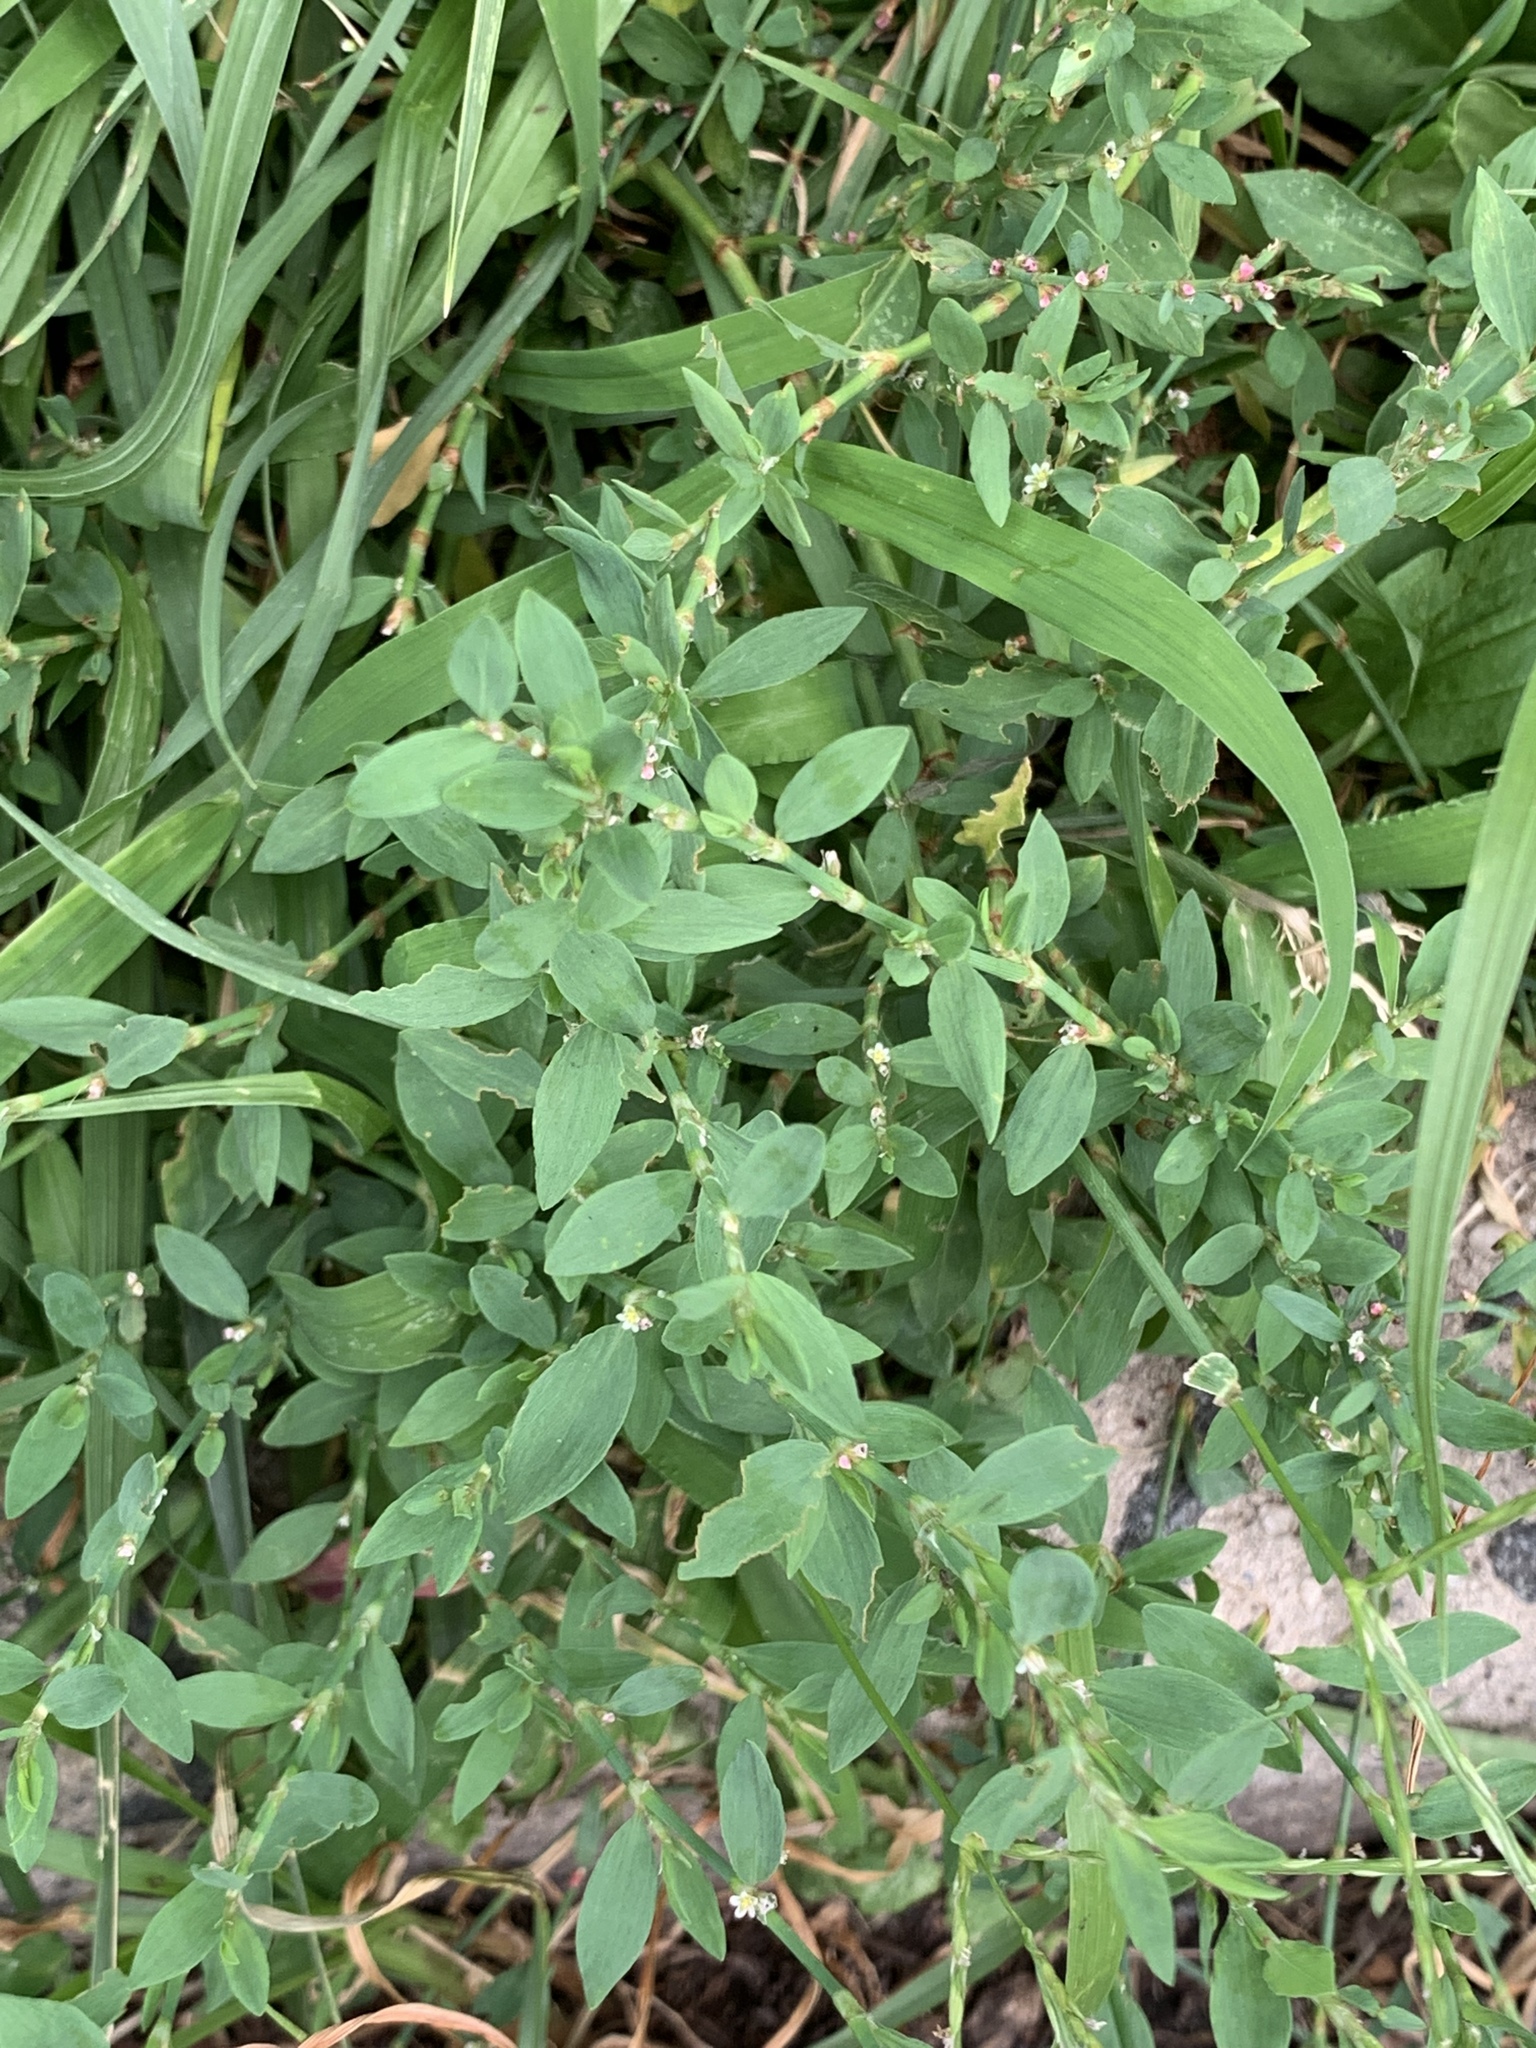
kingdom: Plantae
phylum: Tracheophyta
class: Magnoliopsida
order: Caryophyllales
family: Polygonaceae
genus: Polygonum
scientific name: Polygonum aviculare
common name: Prostrate knotweed
